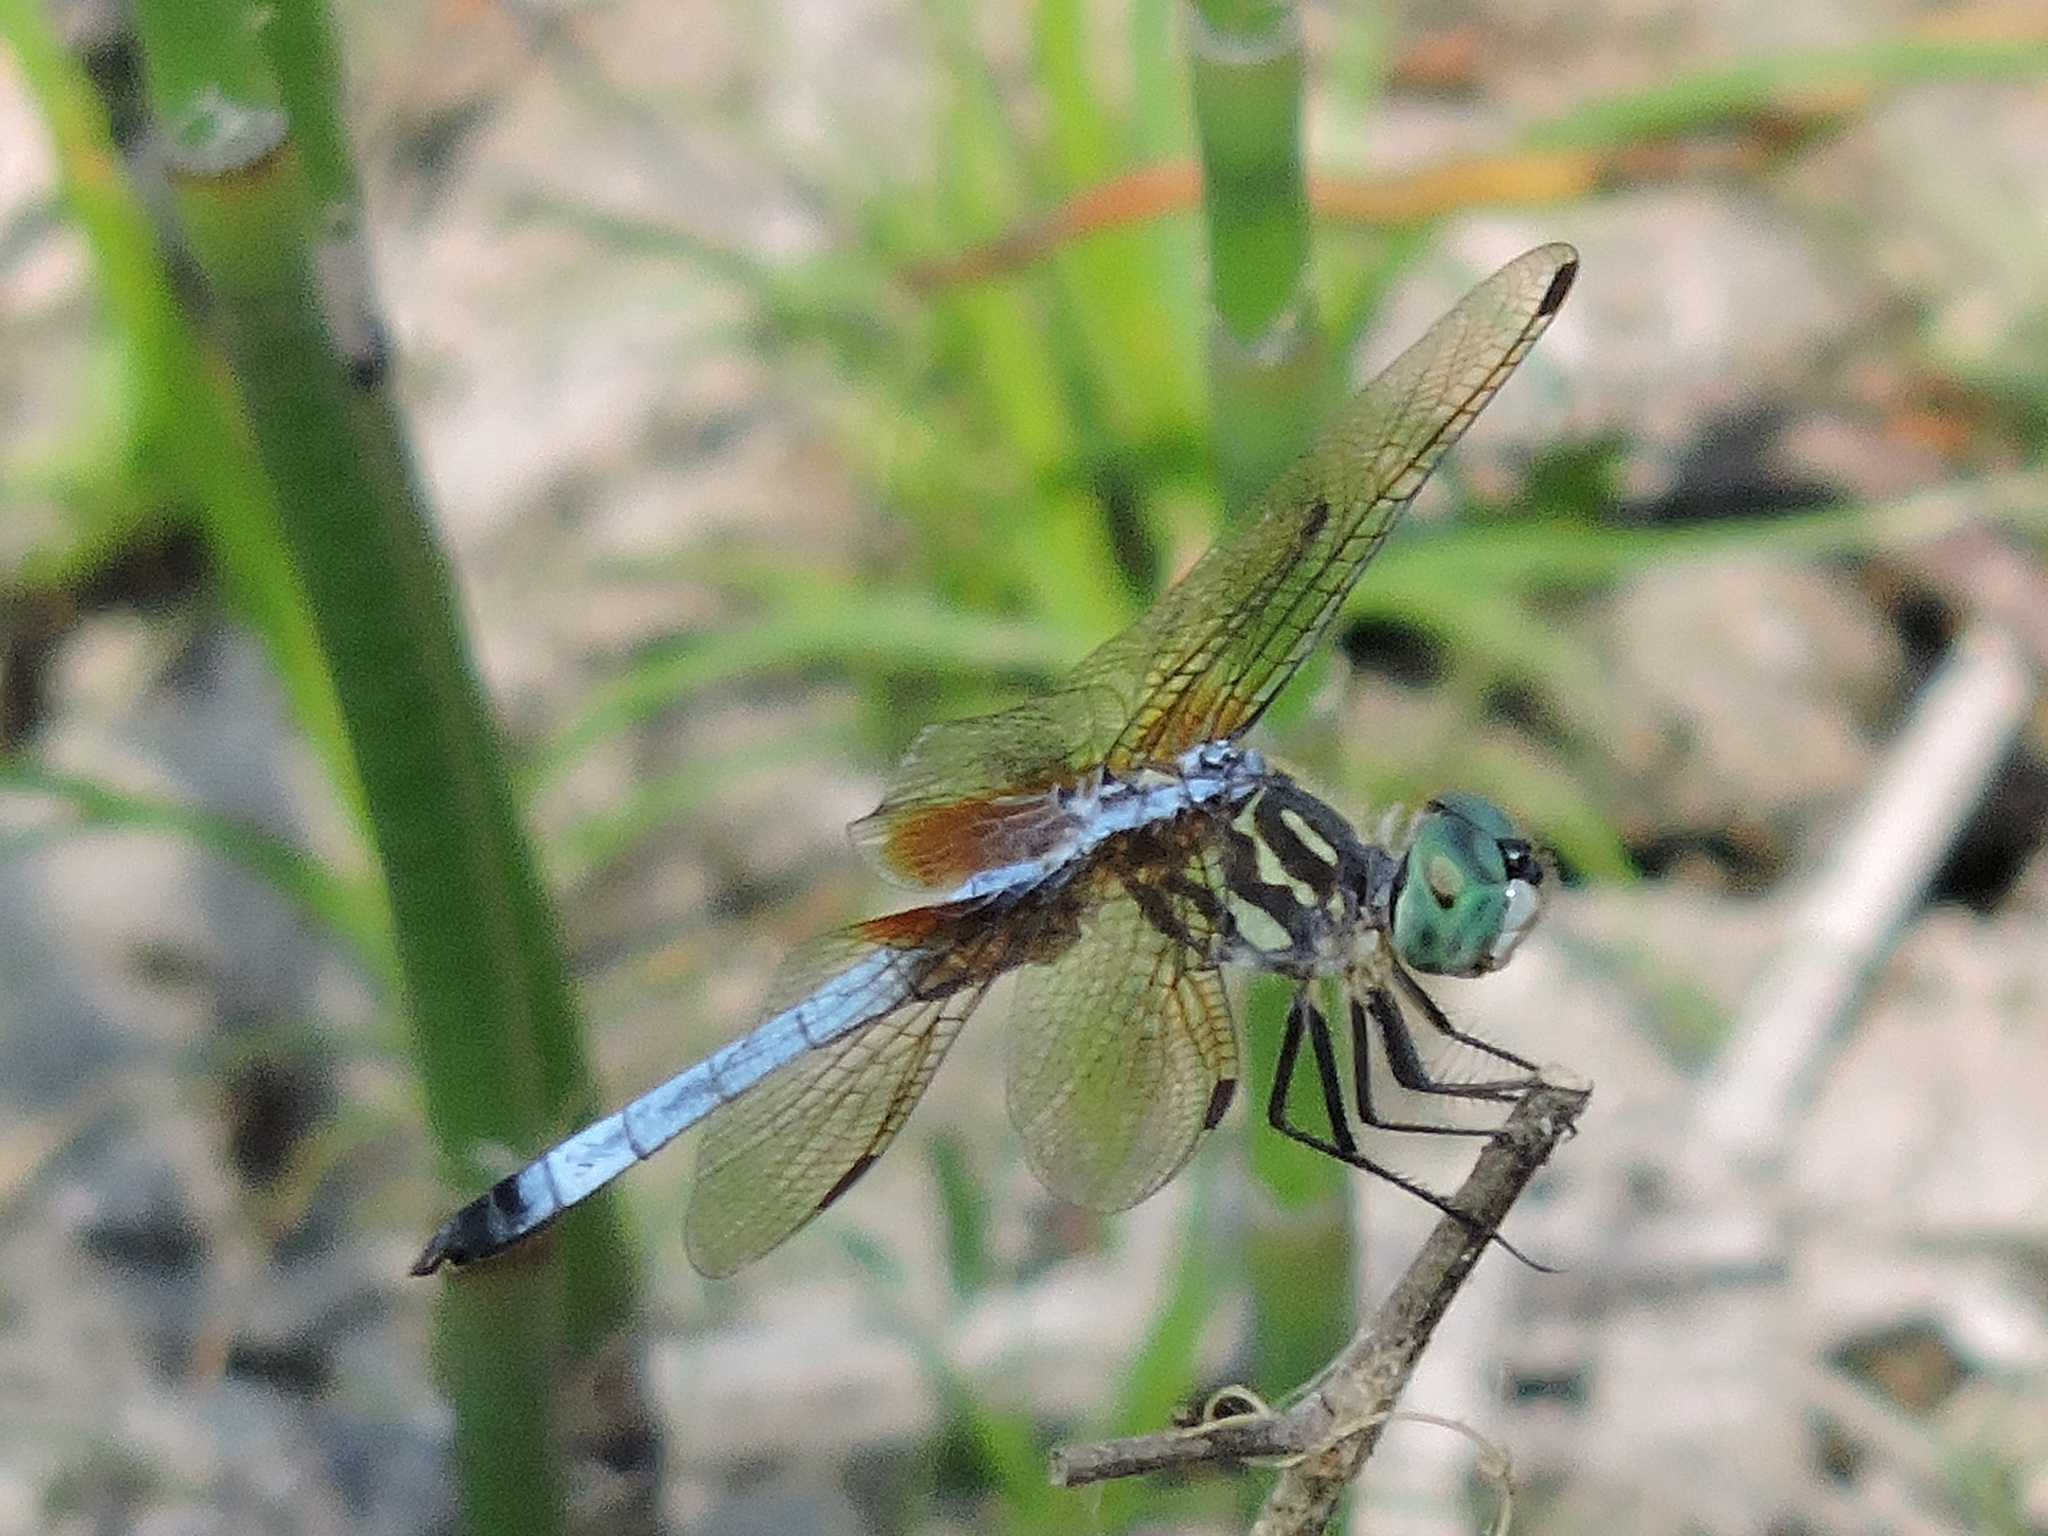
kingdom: Animalia
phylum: Arthropoda
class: Insecta
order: Odonata
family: Libellulidae
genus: Pachydiplax
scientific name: Pachydiplax longipennis
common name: Blue dasher
